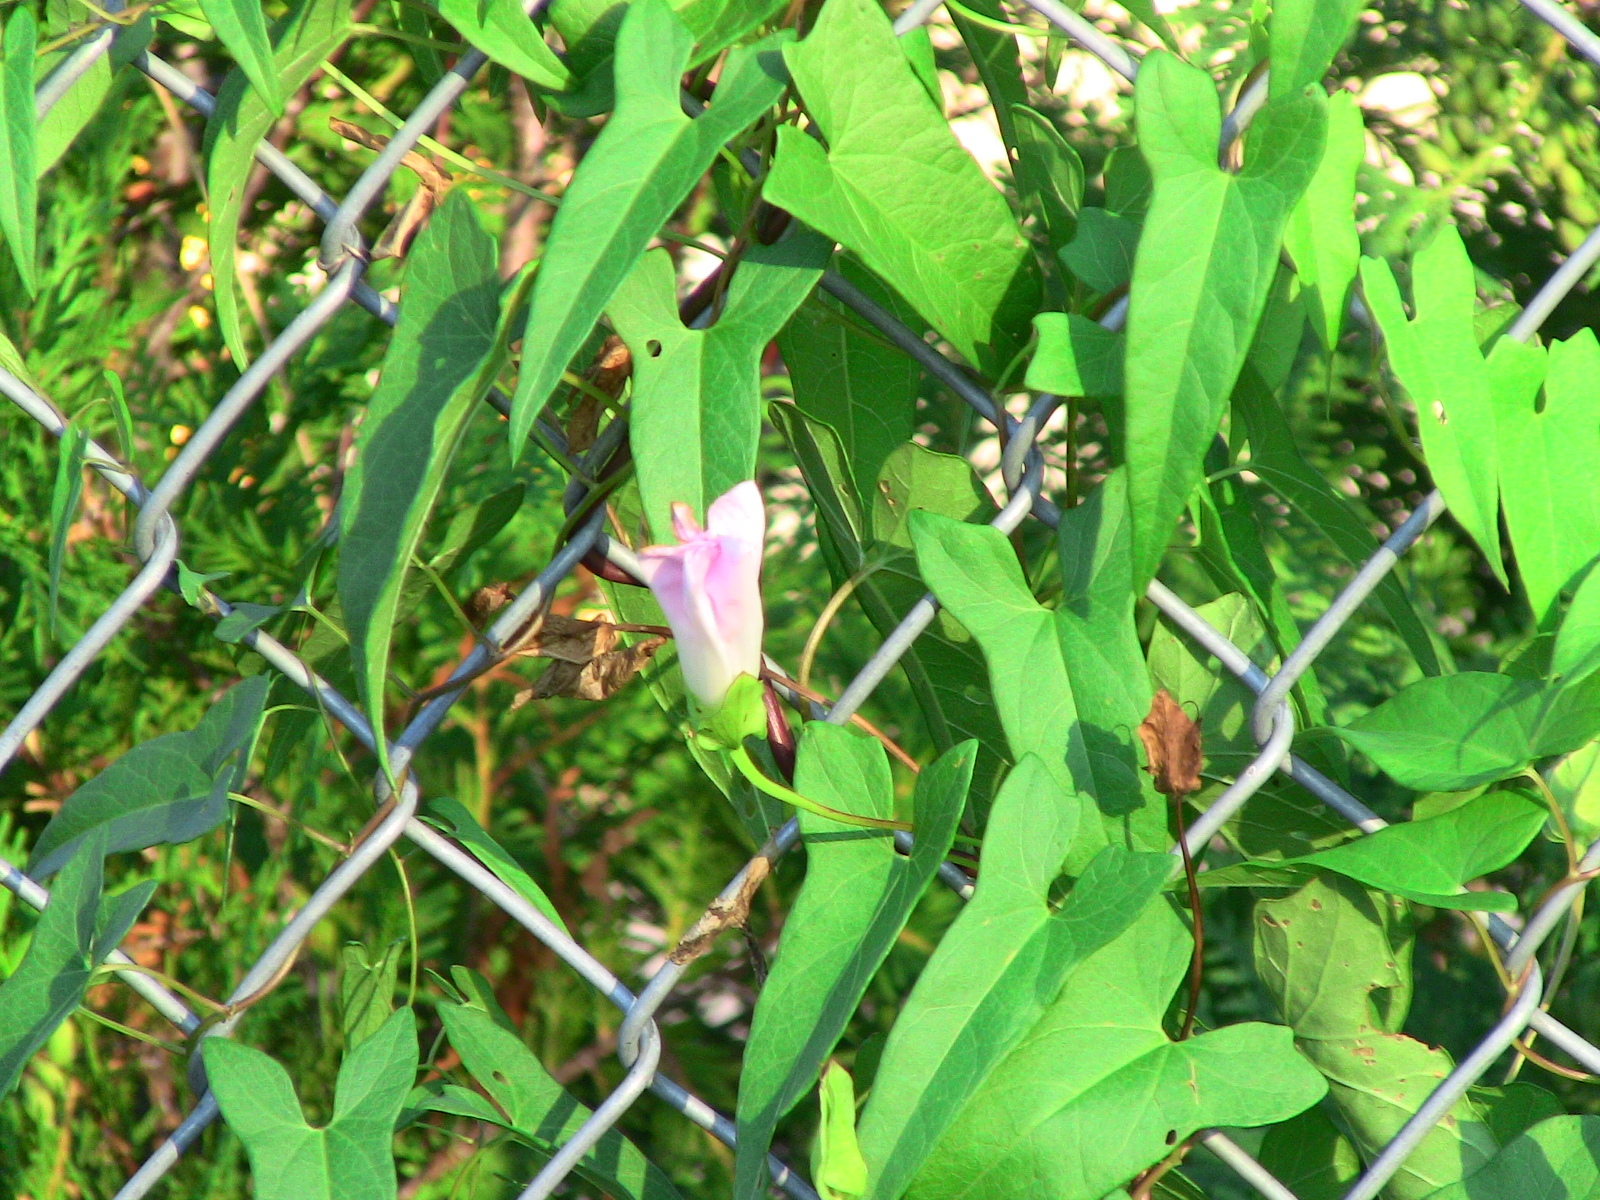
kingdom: Plantae
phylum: Tracheophyta
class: Magnoliopsida
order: Solanales
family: Convolvulaceae
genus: Calystegia
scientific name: Calystegia sepium
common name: Hedge bindweed
